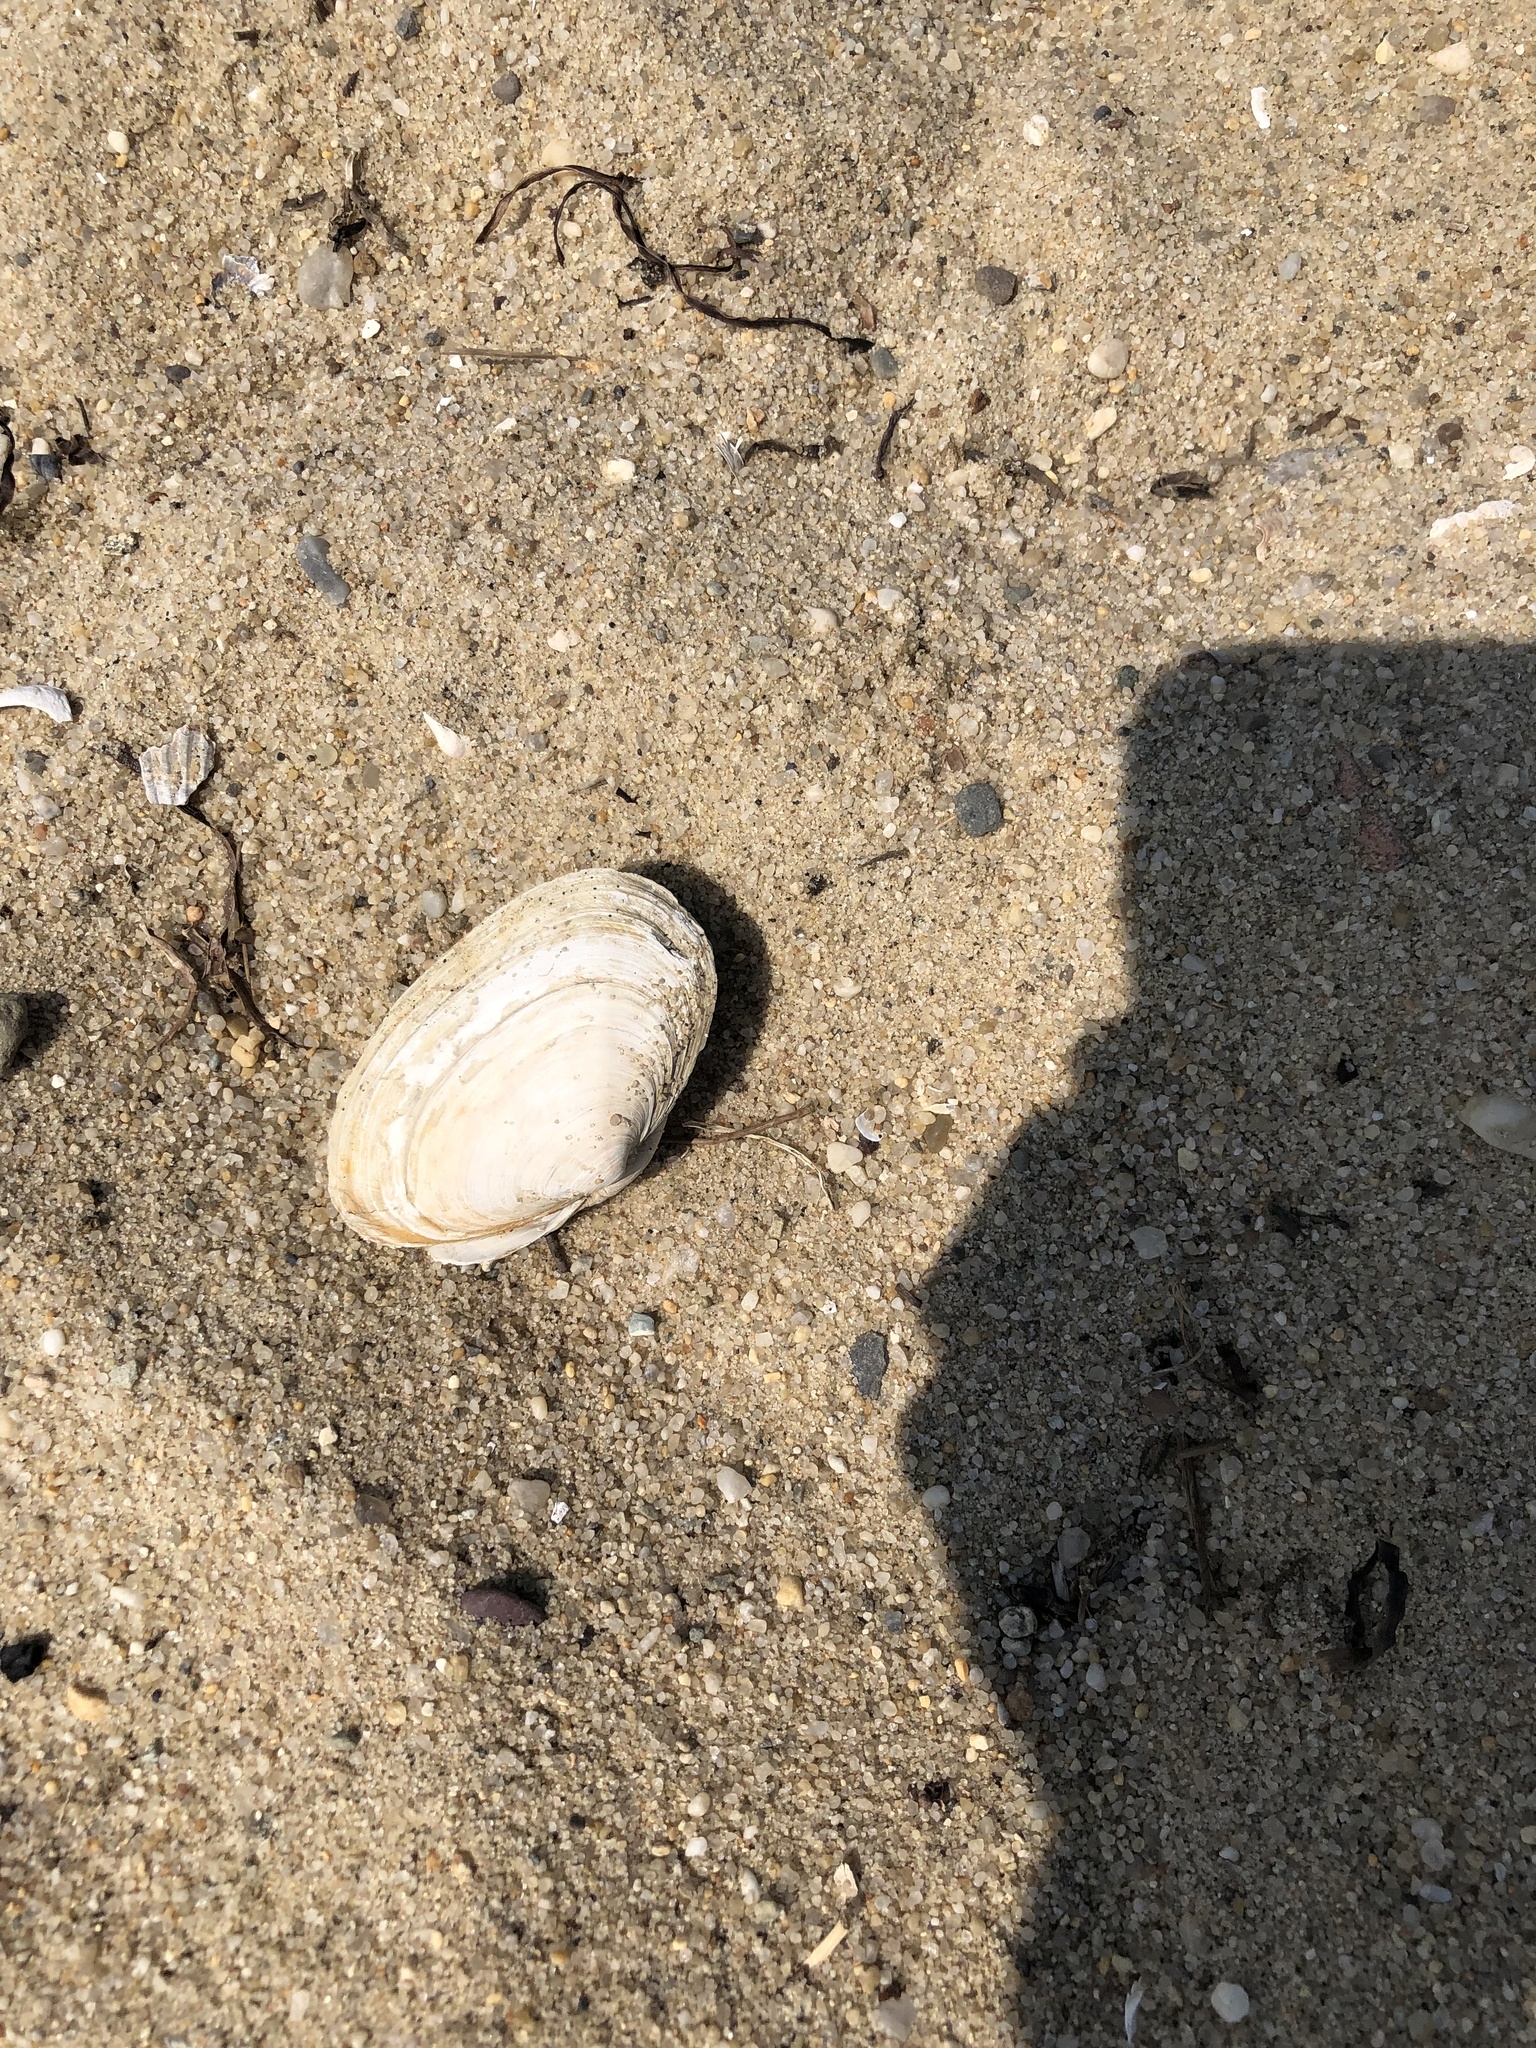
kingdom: Animalia
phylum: Mollusca
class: Bivalvia
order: Myida
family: Myidae
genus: Mya
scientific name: Mya arenaria
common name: Soft-shelled clam
